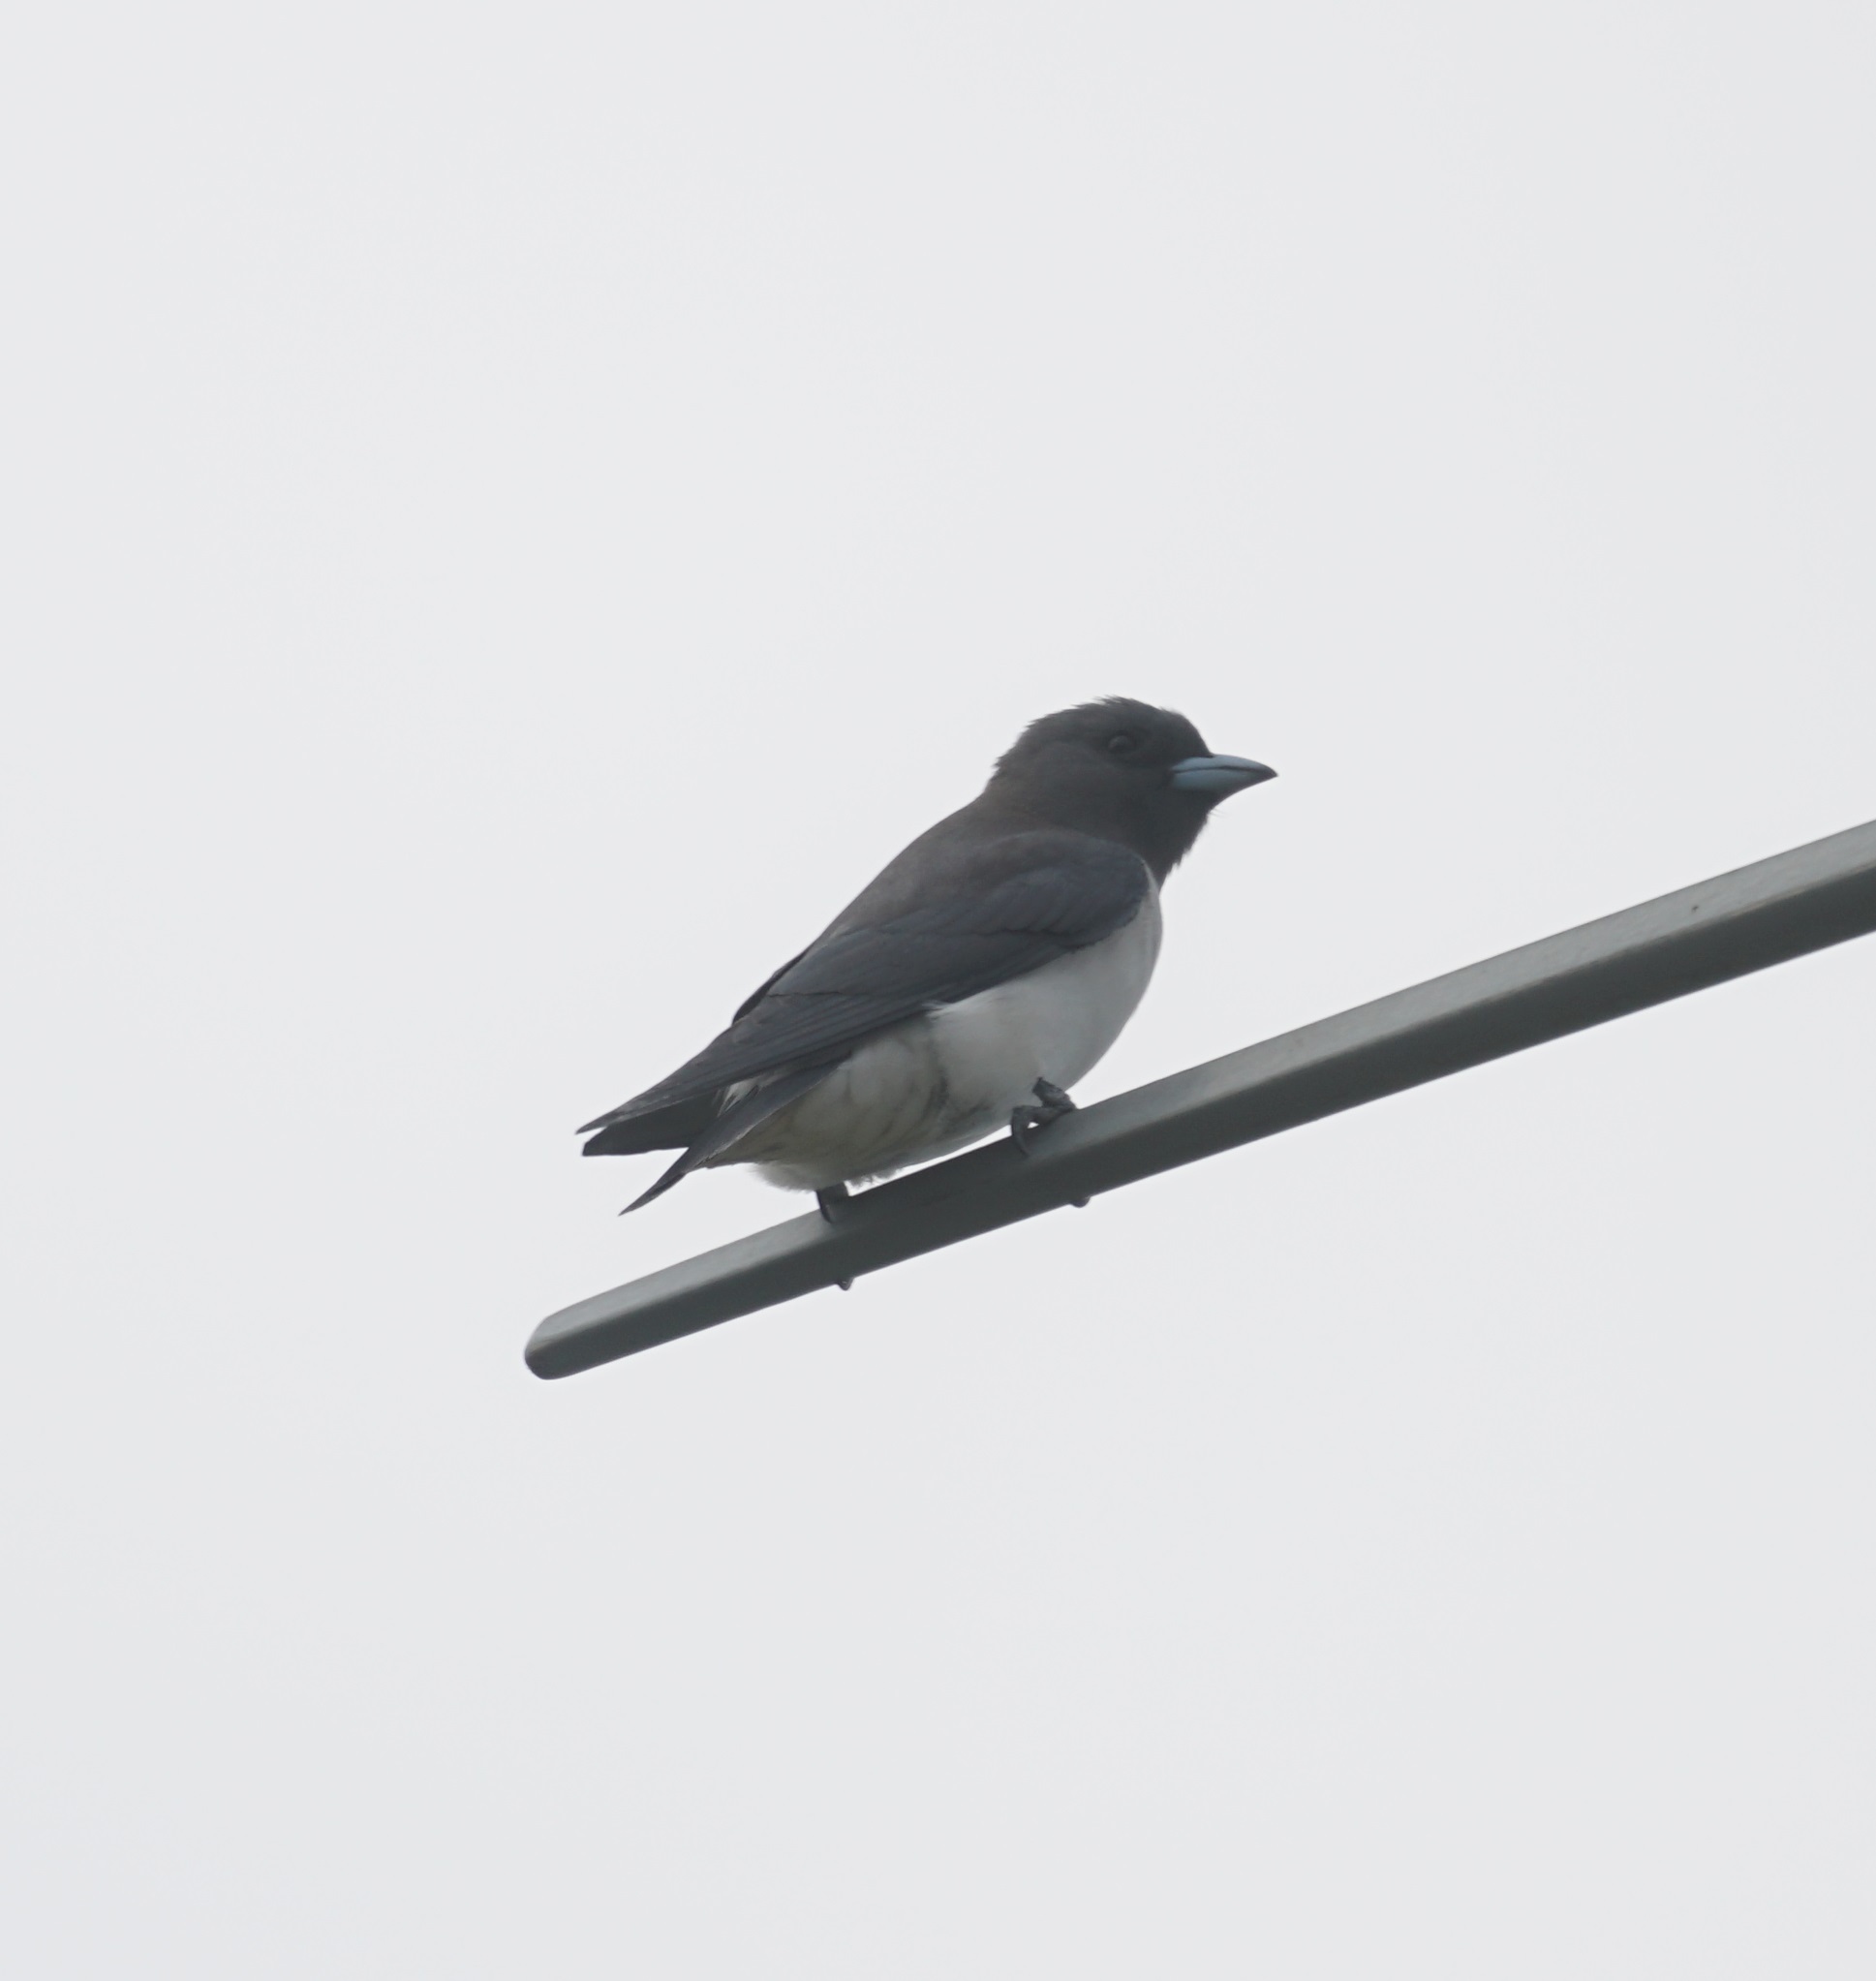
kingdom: Animalia
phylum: Chordata
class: Aves
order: Passeriformes
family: Artamidae
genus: Artamus
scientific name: Artamus leucoryn
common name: White-breasted woodswallow
